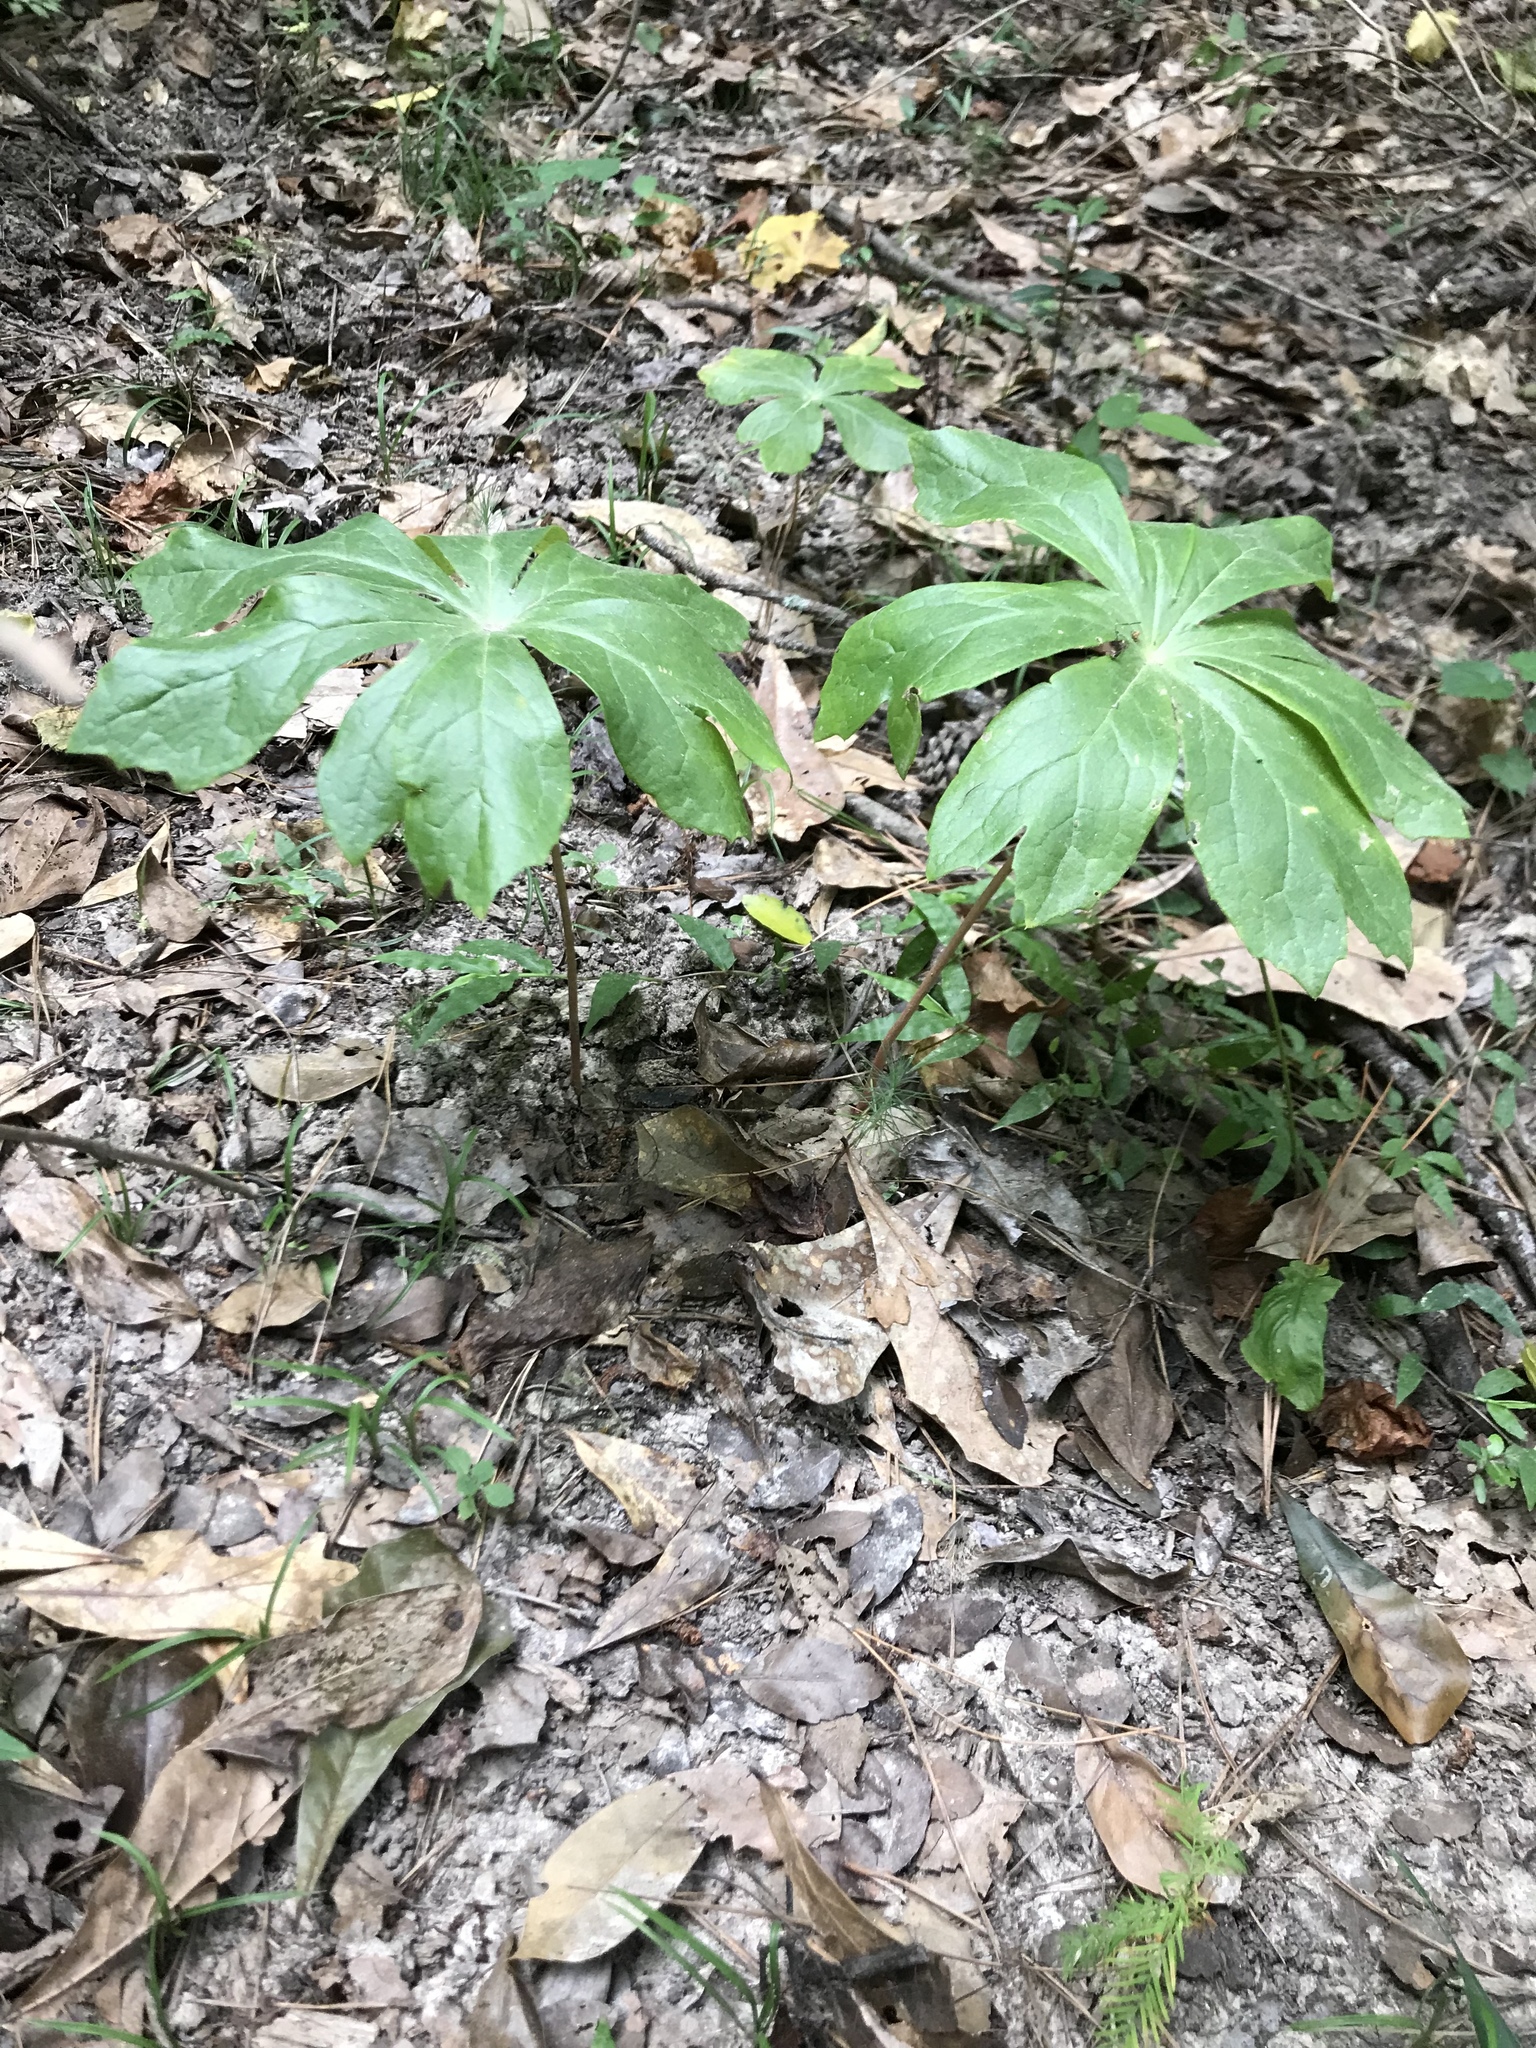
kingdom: Plantae
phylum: Tracheophyta
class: Magnoliopsida
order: Ranunculales
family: Berberidaceae
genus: Podophyllum
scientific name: Podophyllum peltatum
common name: Wild mandrake
